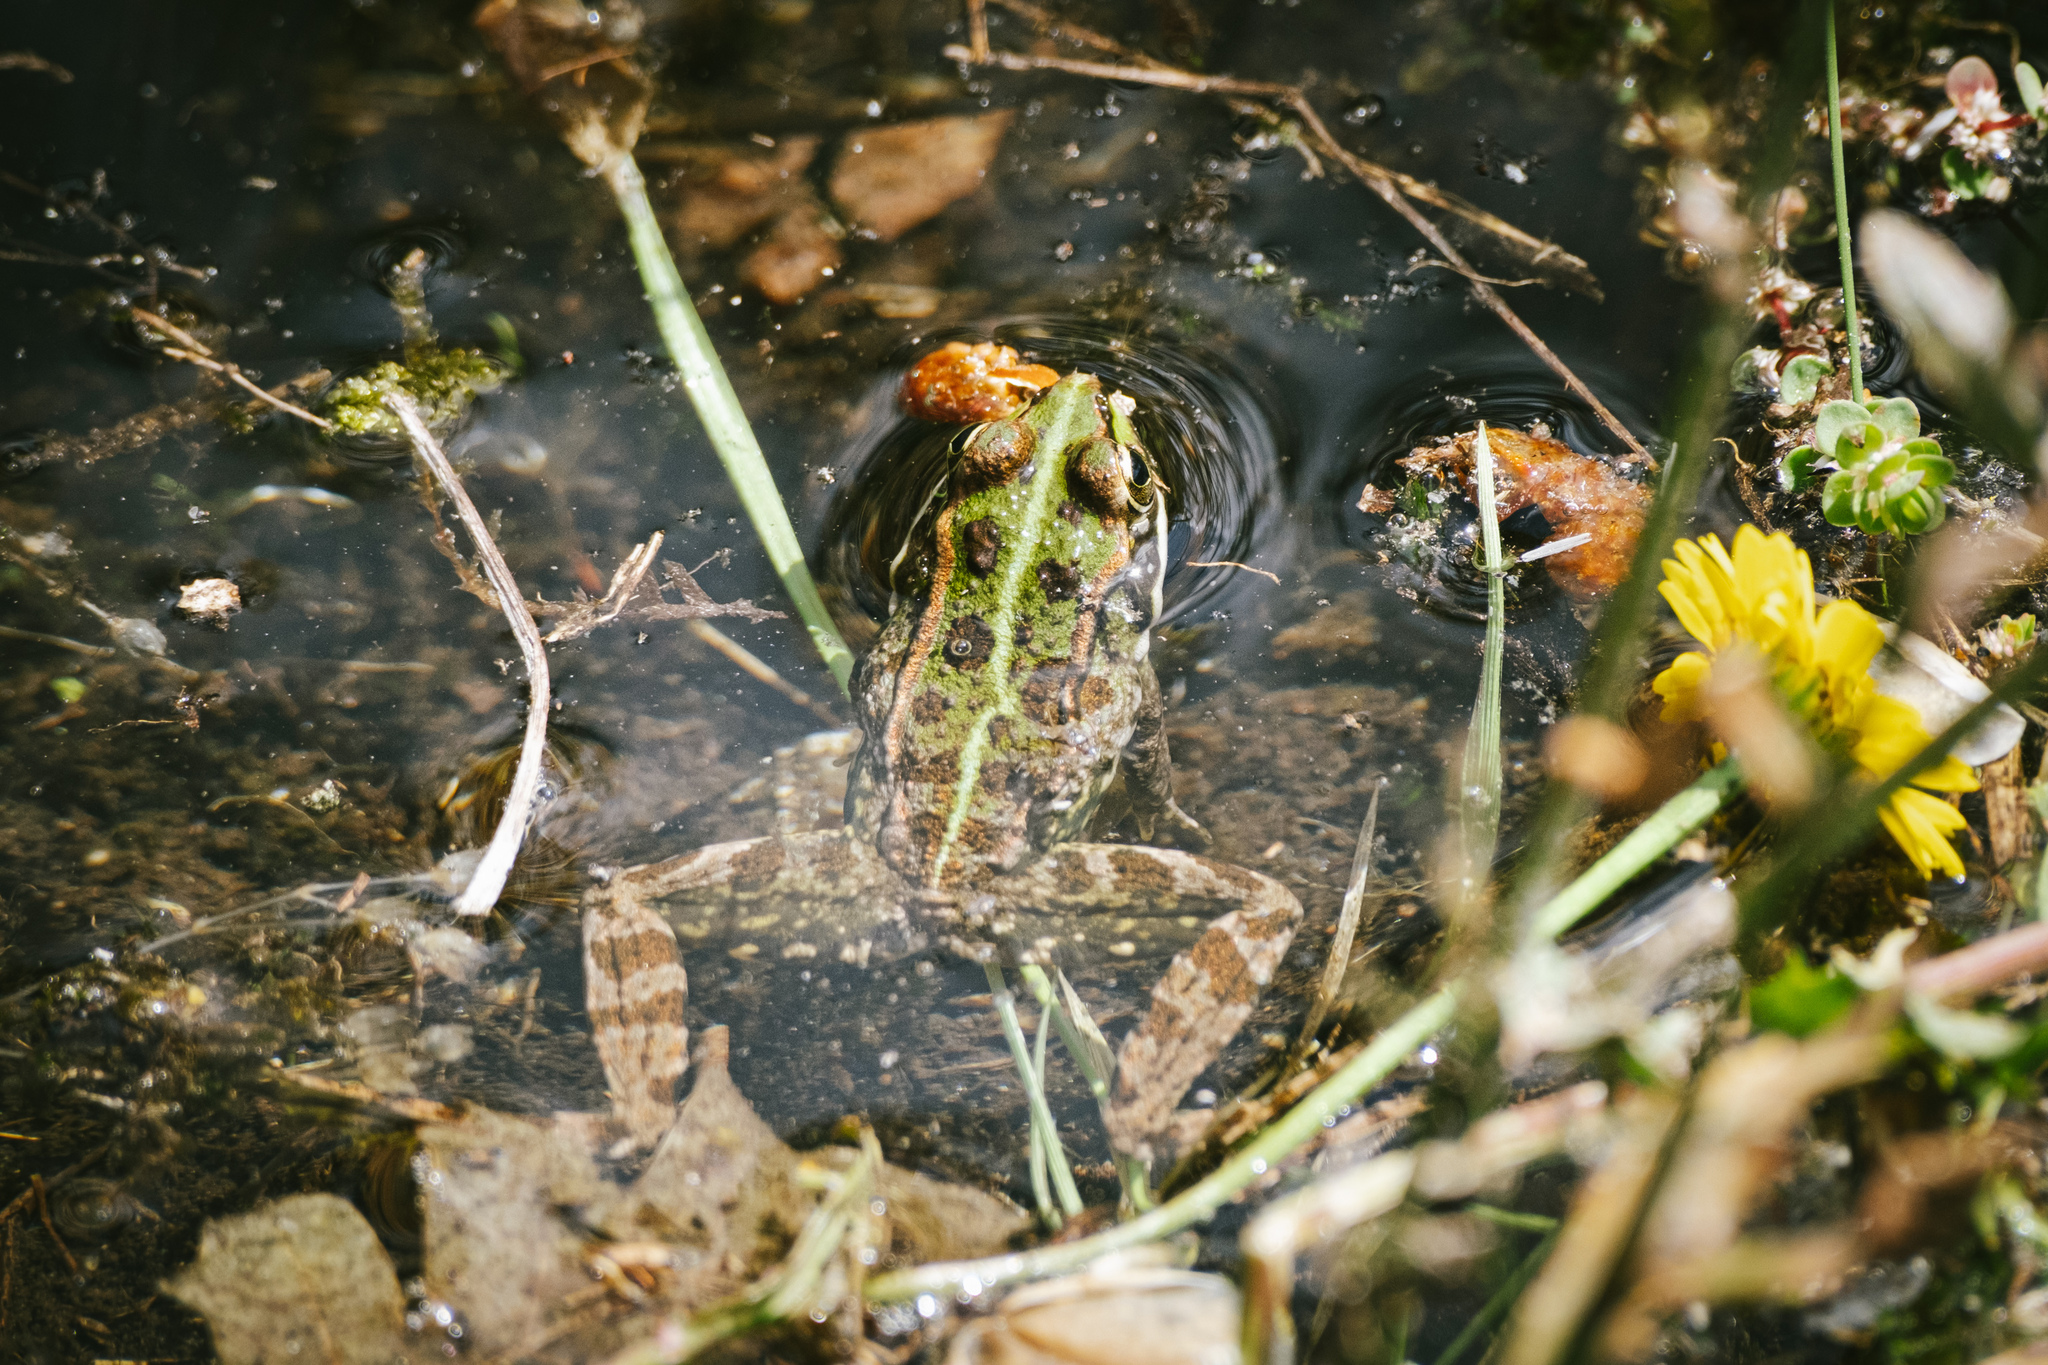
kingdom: Animalia
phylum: Chordata
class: Amphibia
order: Anura
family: Ranidae
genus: Pelophylax
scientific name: Pelophylax perezi
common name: Perez's frog
